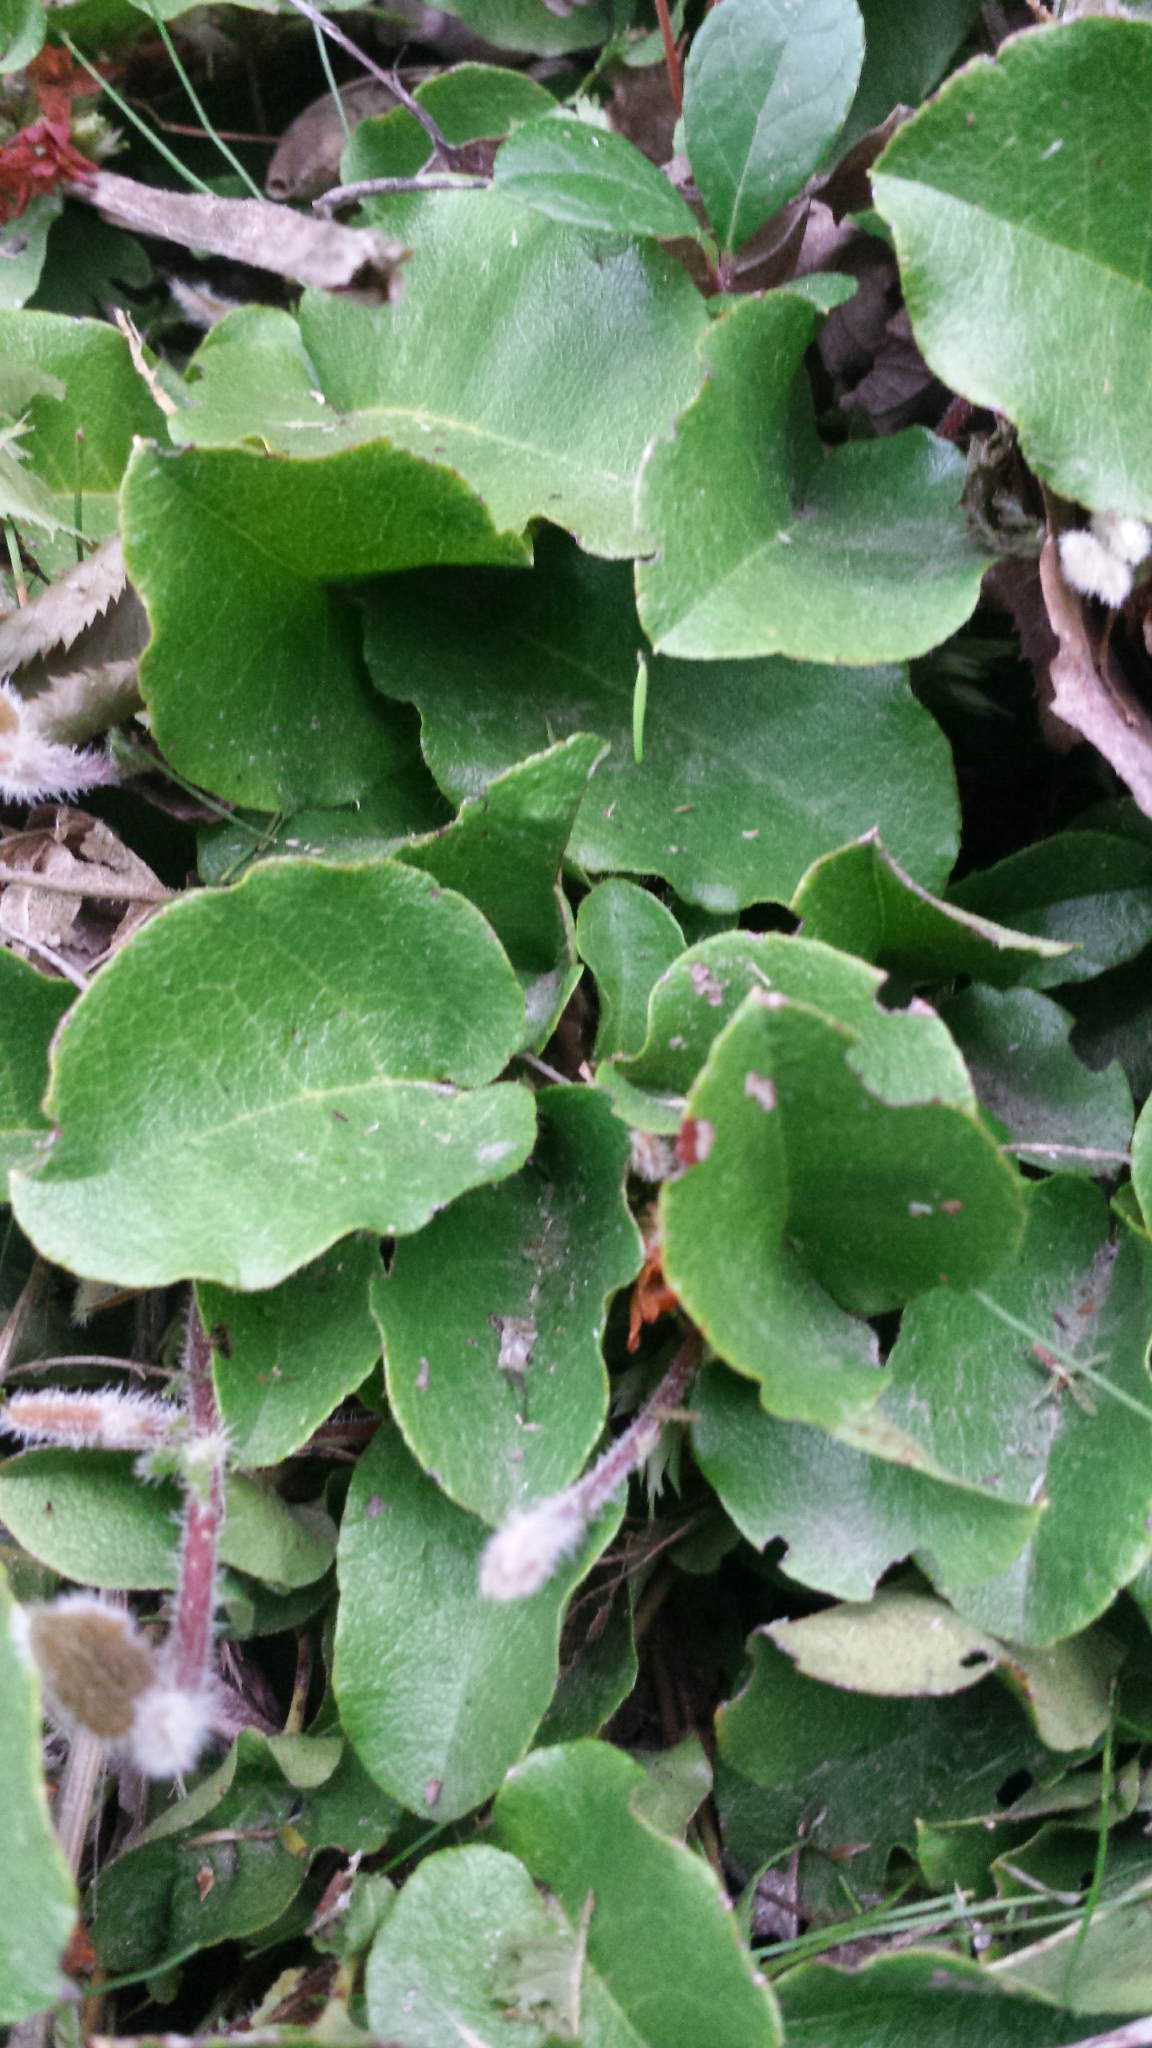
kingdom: Plantae
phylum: Tracheophyta
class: Magnoliopsida
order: Ericales
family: Ericaceae
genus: Epigaea
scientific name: Epigaea repens
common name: Gravelroot
